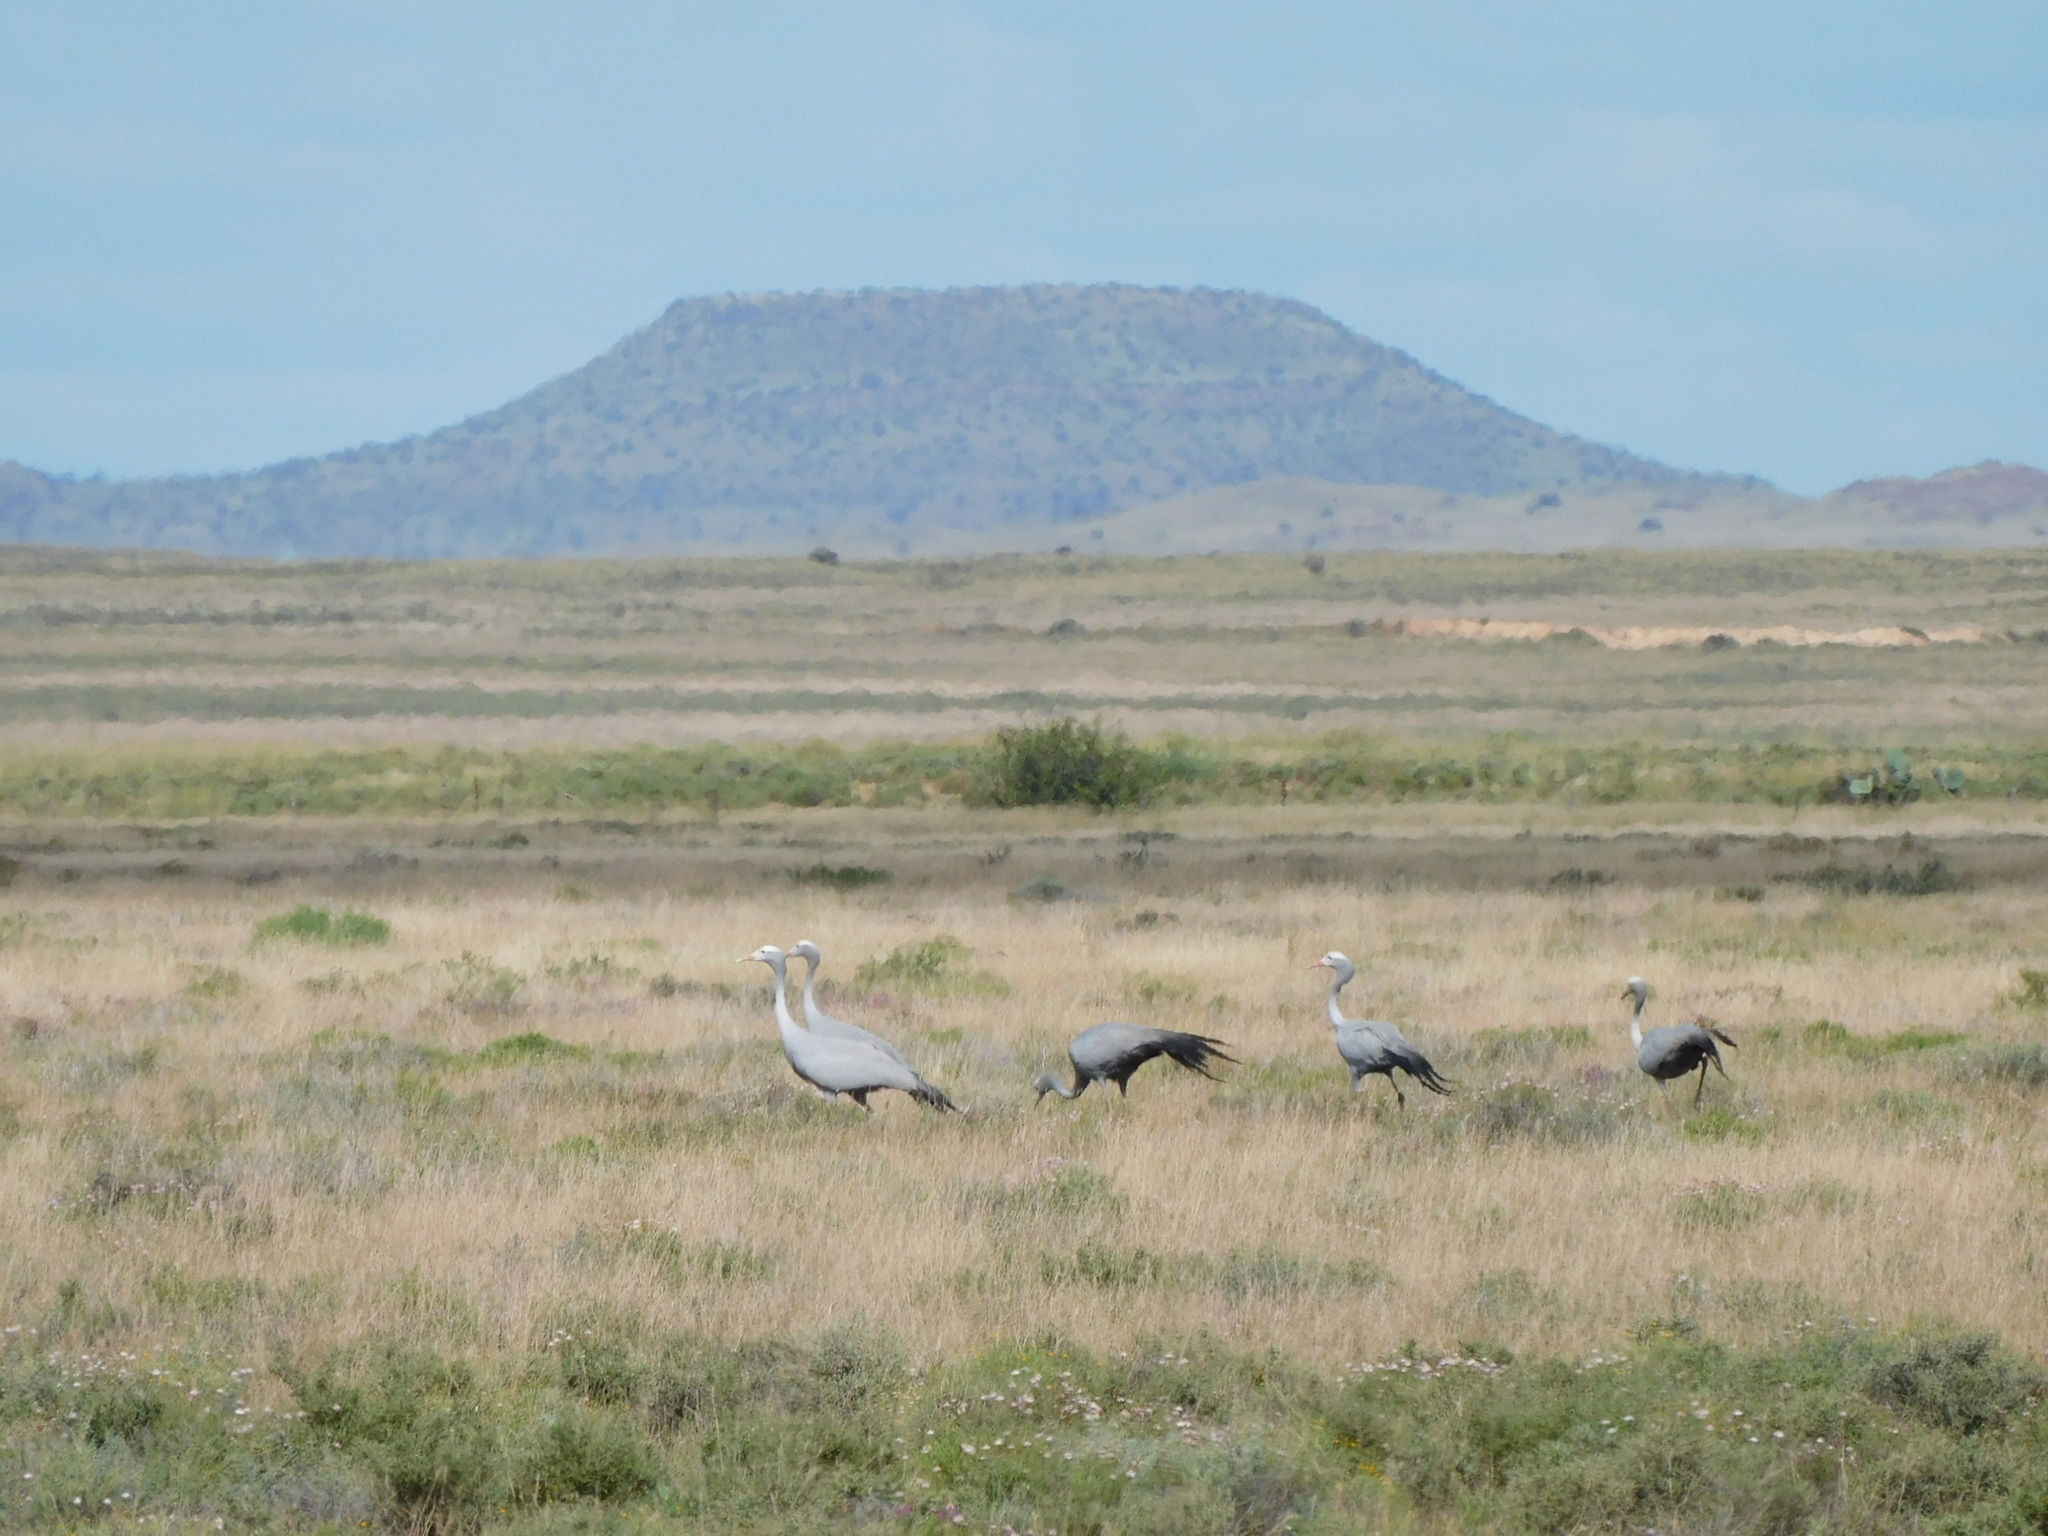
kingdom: Animalia
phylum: Chordata
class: Aves
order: Gruiformes
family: Gruidae
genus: Anthropoides
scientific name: Anthropoides paradiseus
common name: Blue crane
